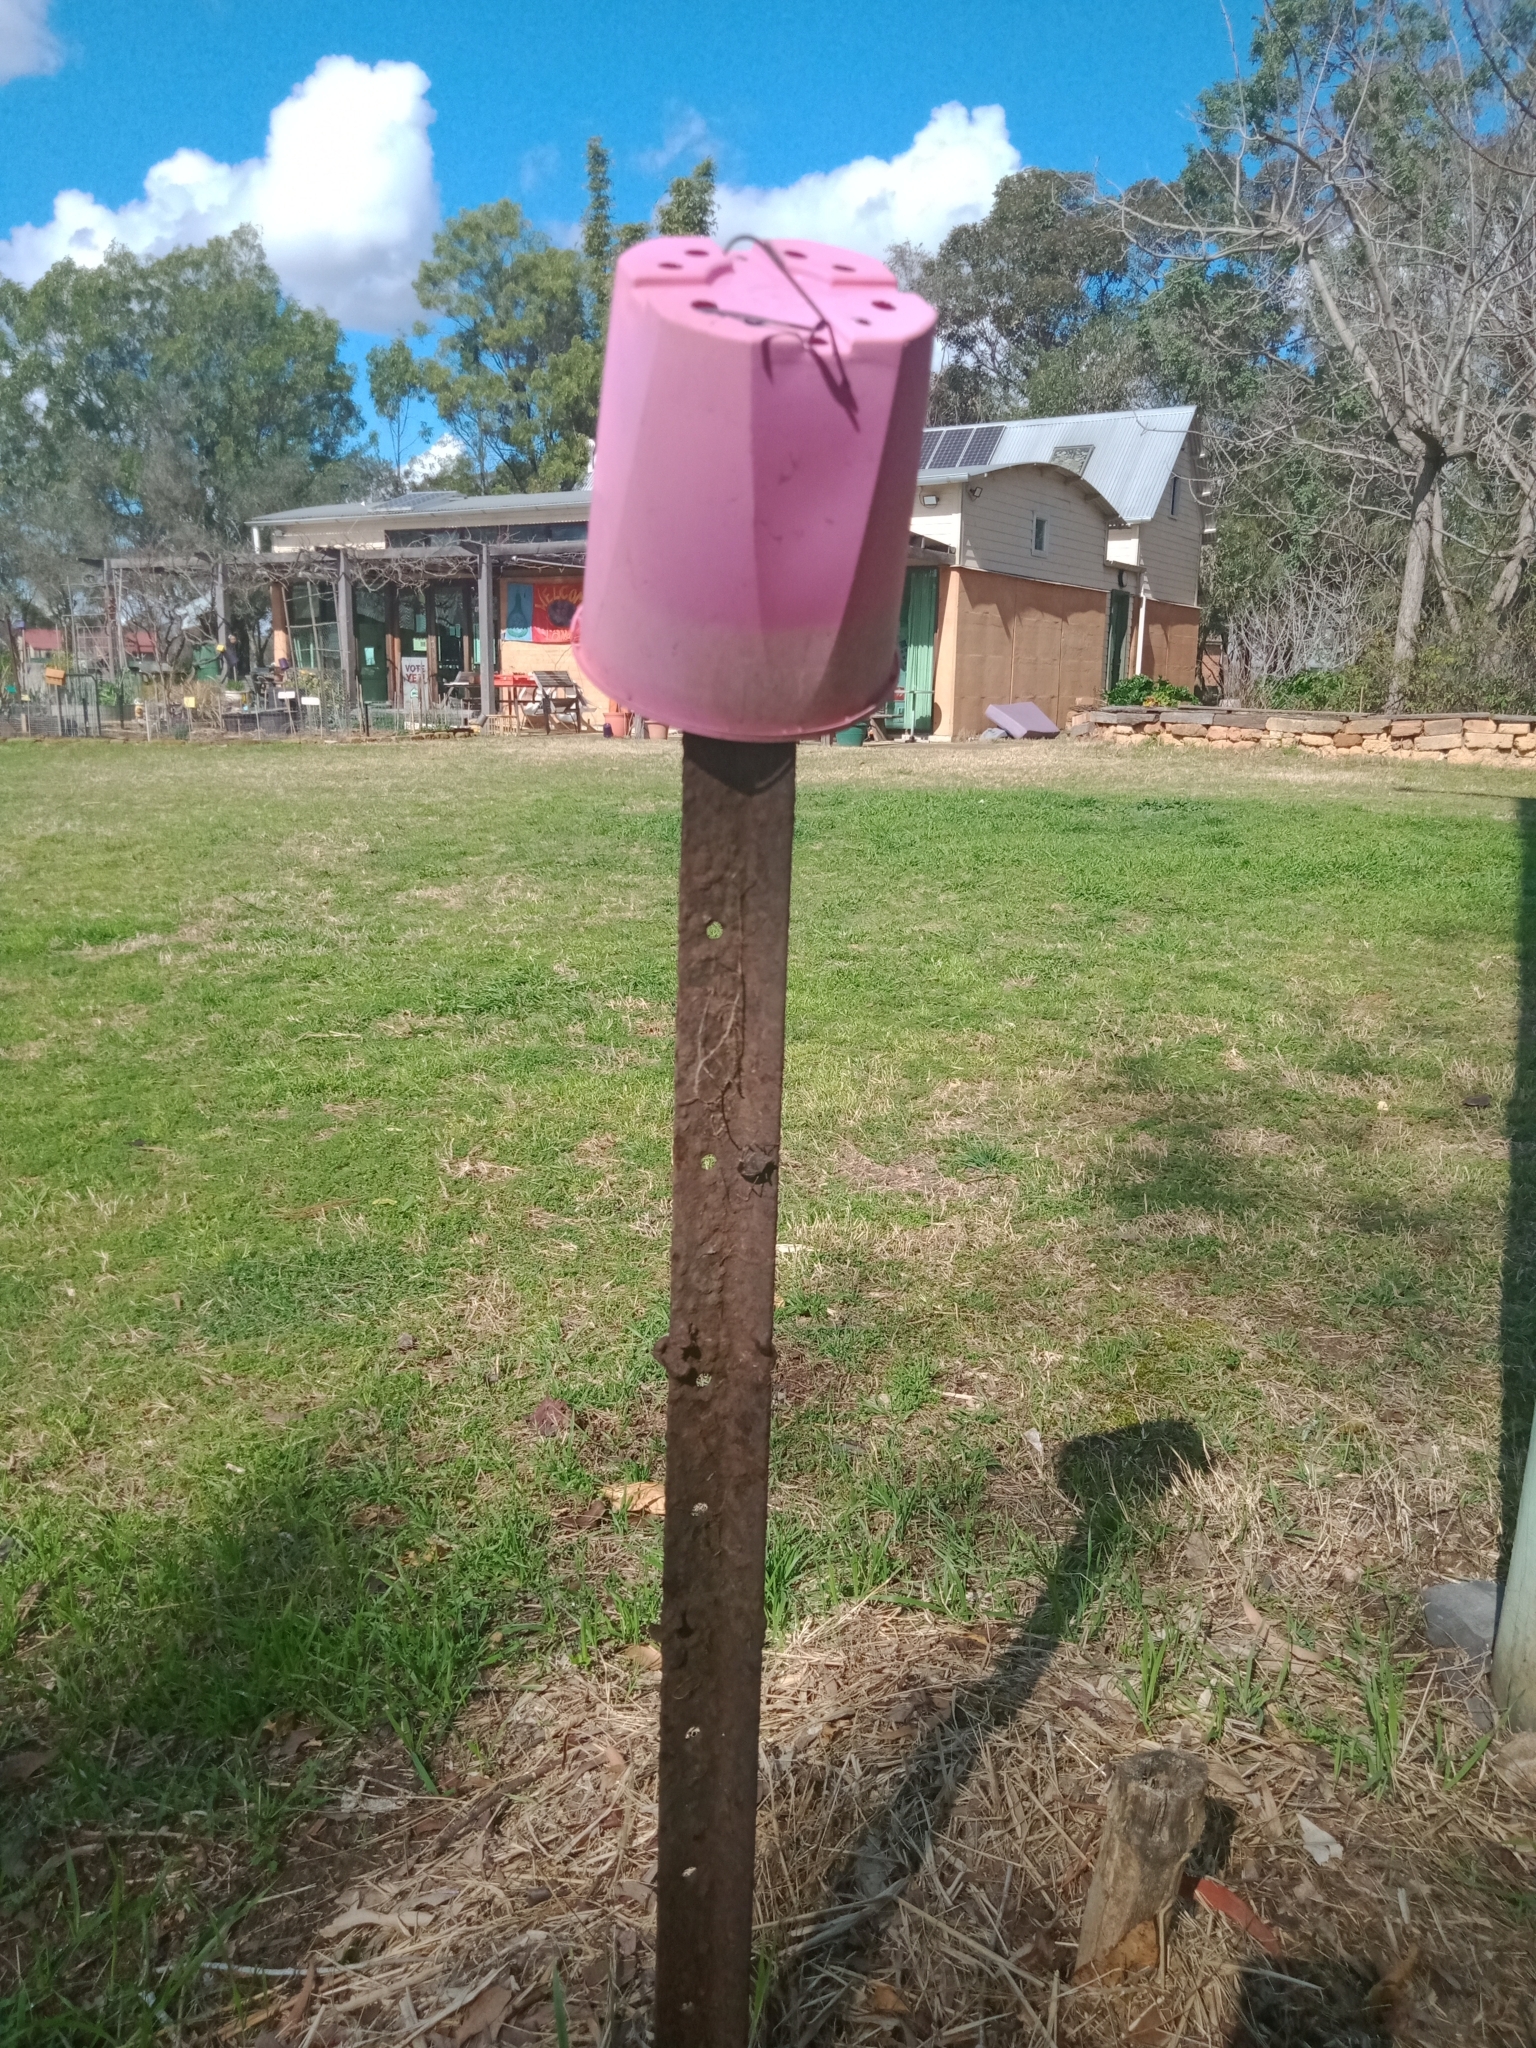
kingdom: Animalia
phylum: Arthropoda
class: Insecta
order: Hemiptera
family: Pentatomidae
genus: Poecilometis
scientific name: Poecilometis
